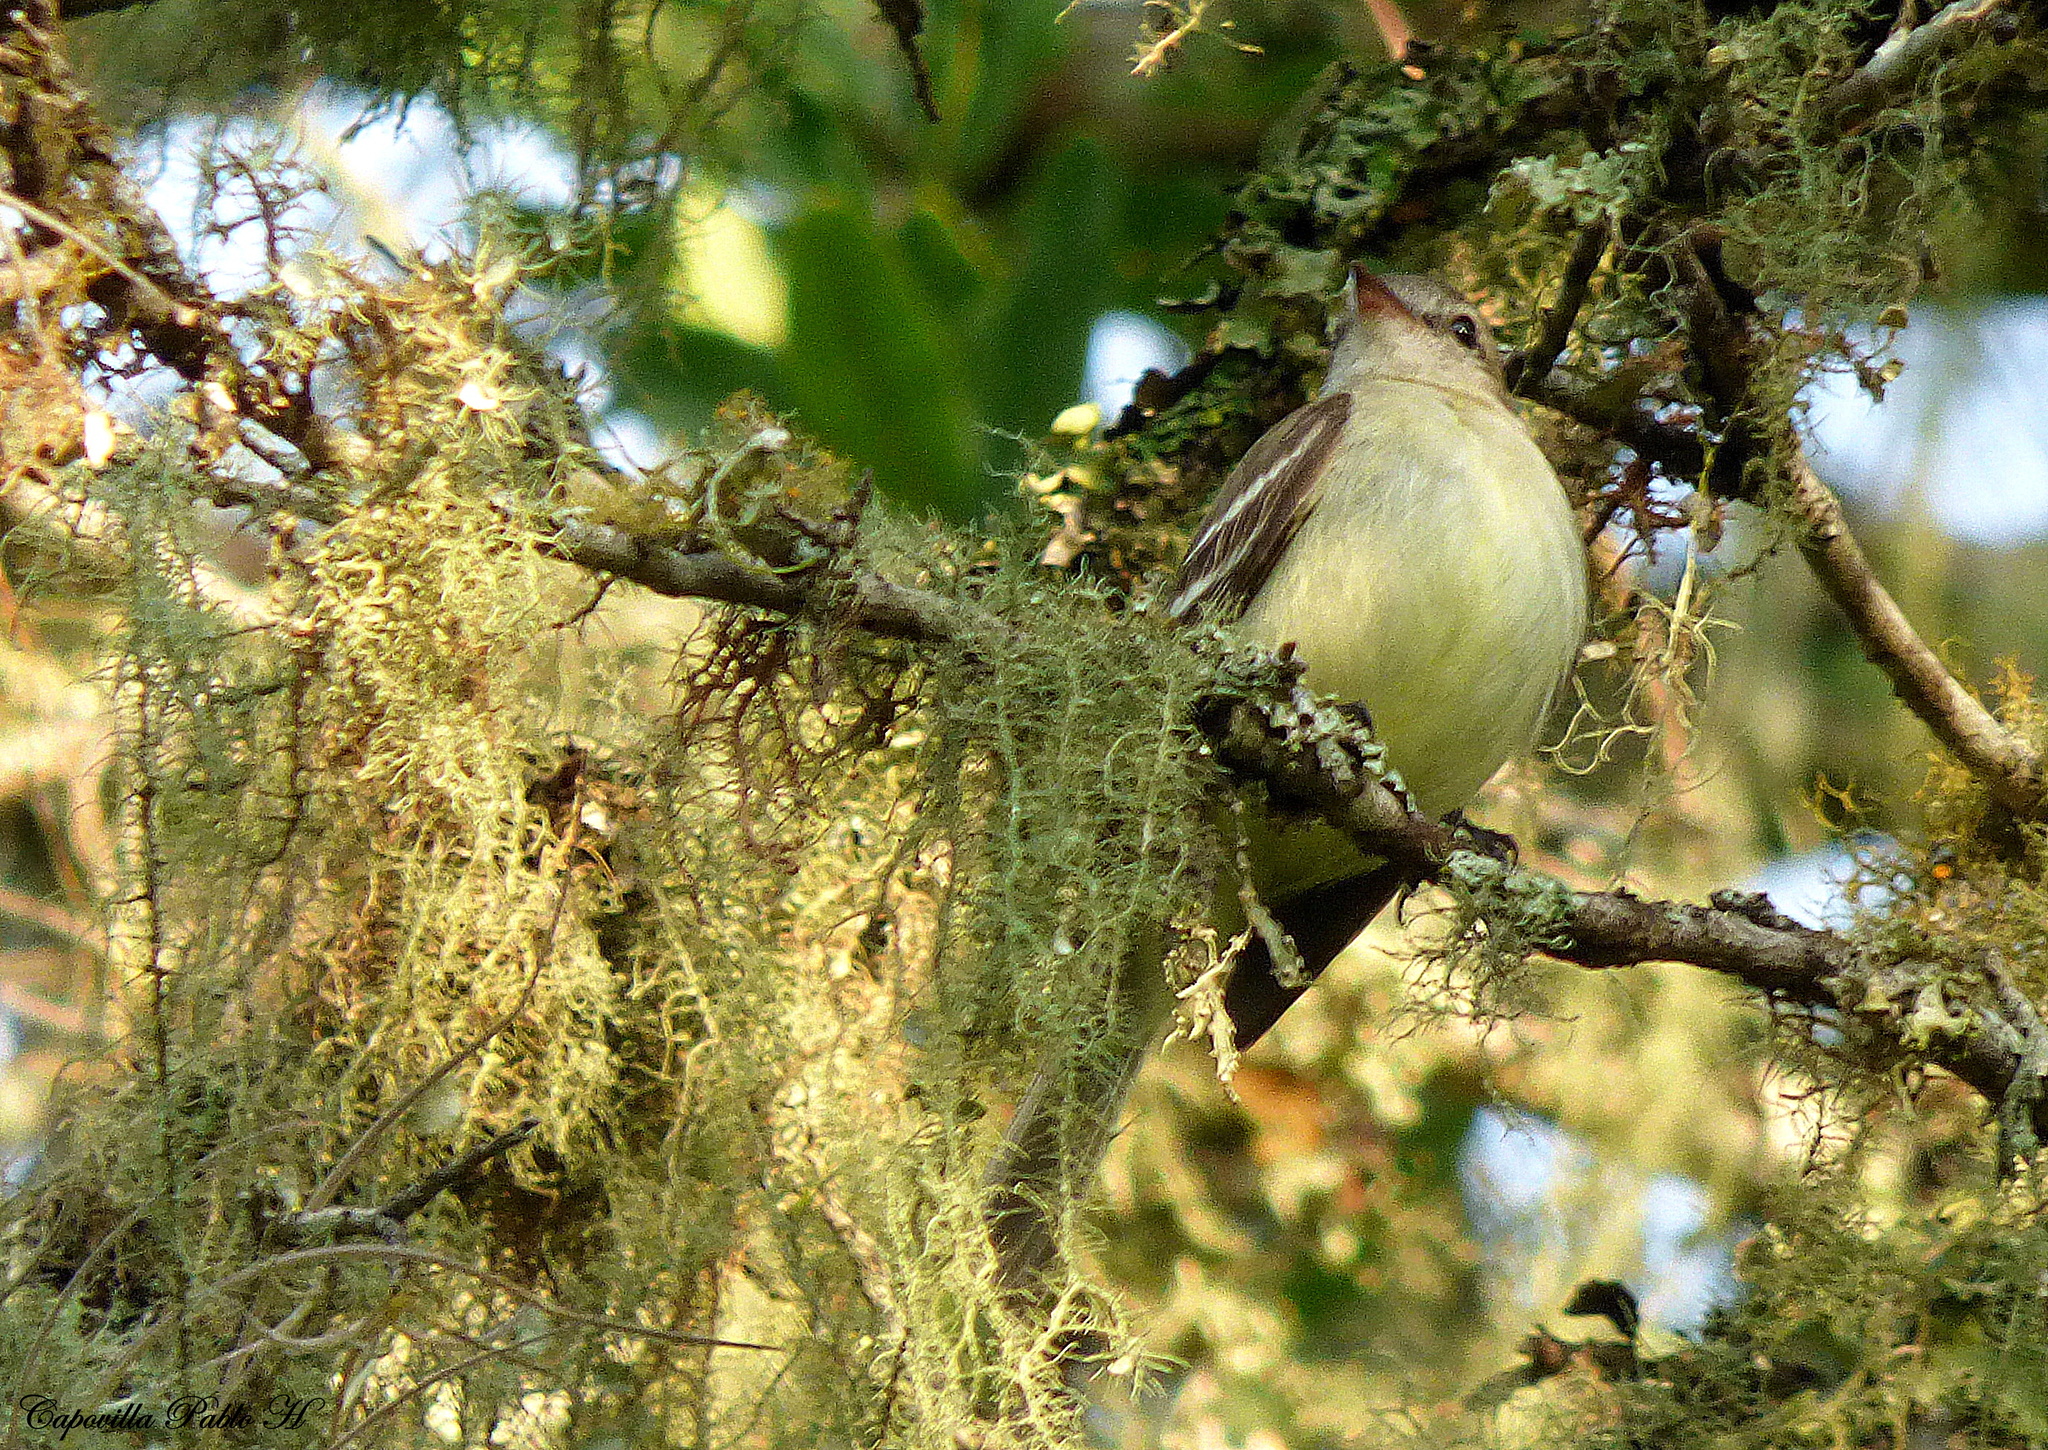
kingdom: Animalia
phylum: Chordata
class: Aves
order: Passeriformes
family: Tyrannidae
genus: Phaeomyias
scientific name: Phaeomyias murina
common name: Mouse-colored tyrannulet
